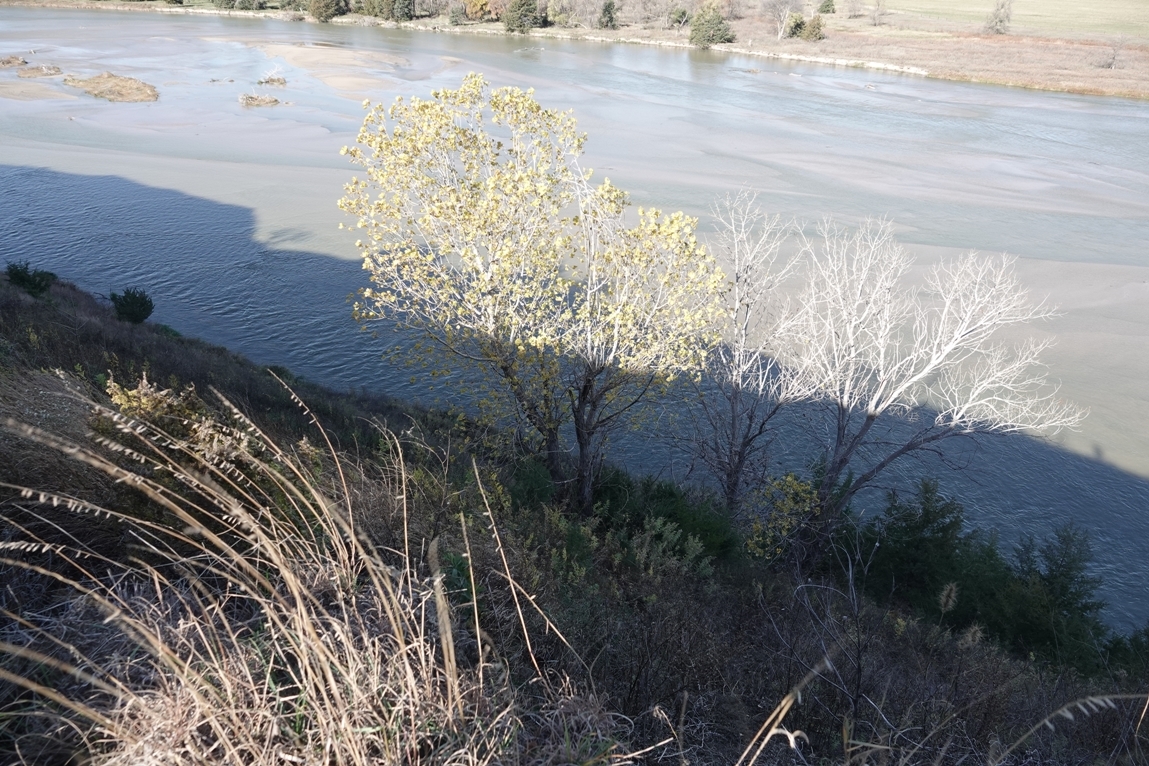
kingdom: Plantae
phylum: Tracheophyta
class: Magnoliopsida
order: Malpighiales
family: Salicaceae
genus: Populus
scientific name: Populus deltoides
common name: Eastern cottonwood
